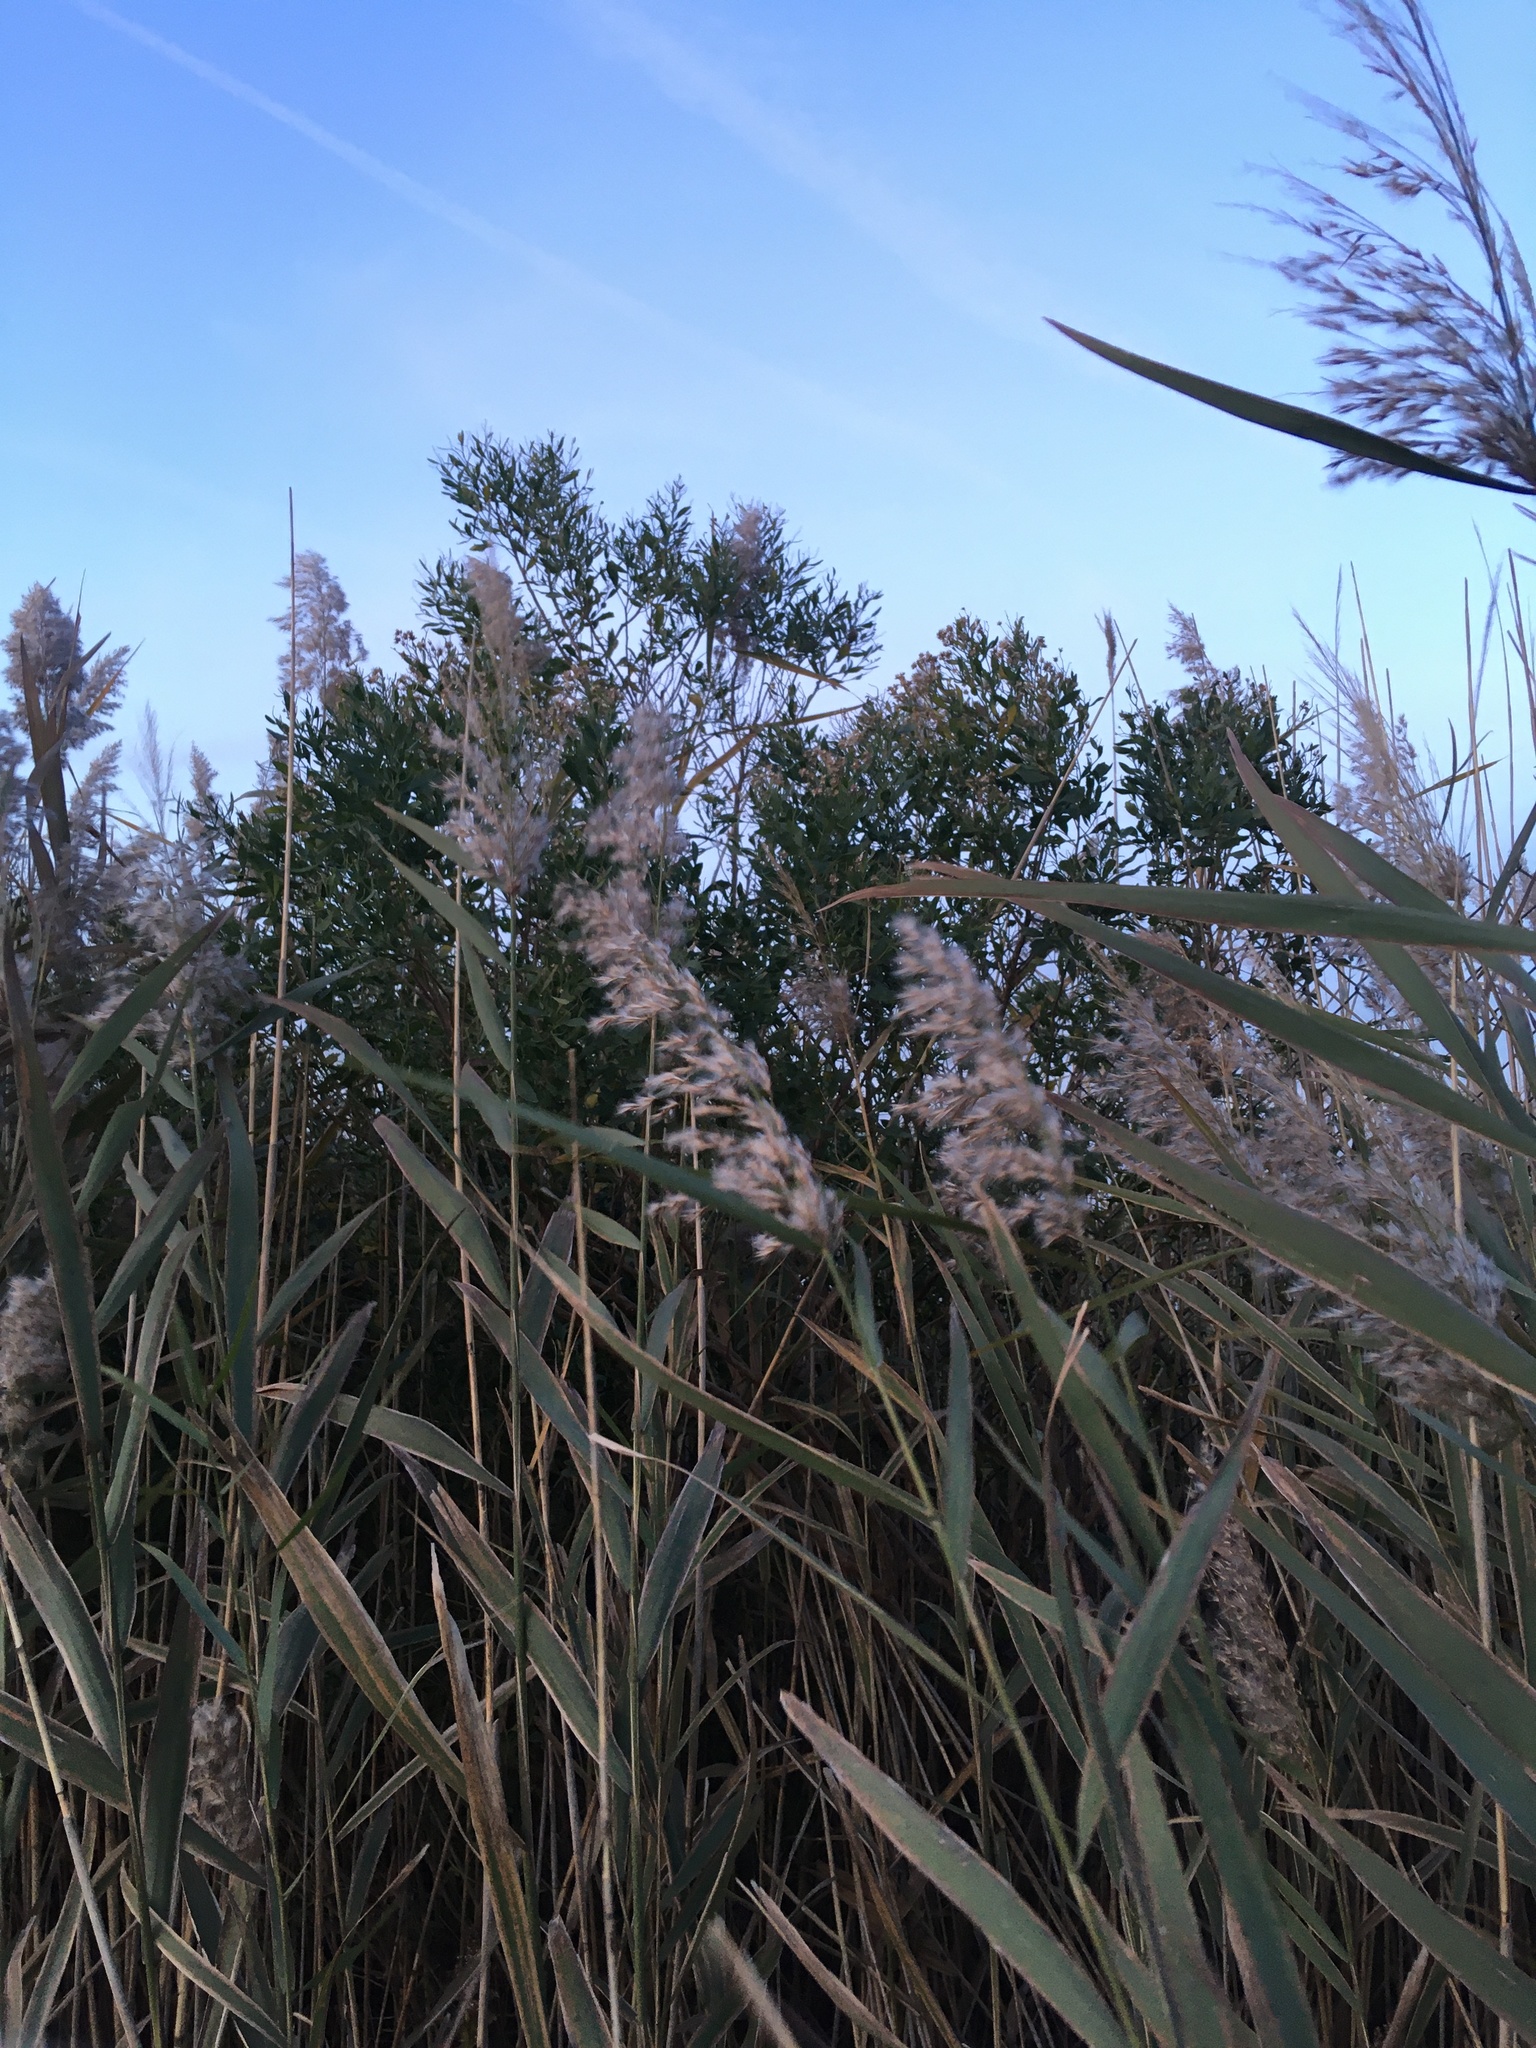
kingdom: Plantae
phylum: Tracheophyta
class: Magnoliopsida
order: Asterales
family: Asteraceae
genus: Baccharis
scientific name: Baccharis halimifolia
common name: Eastern baccharis
